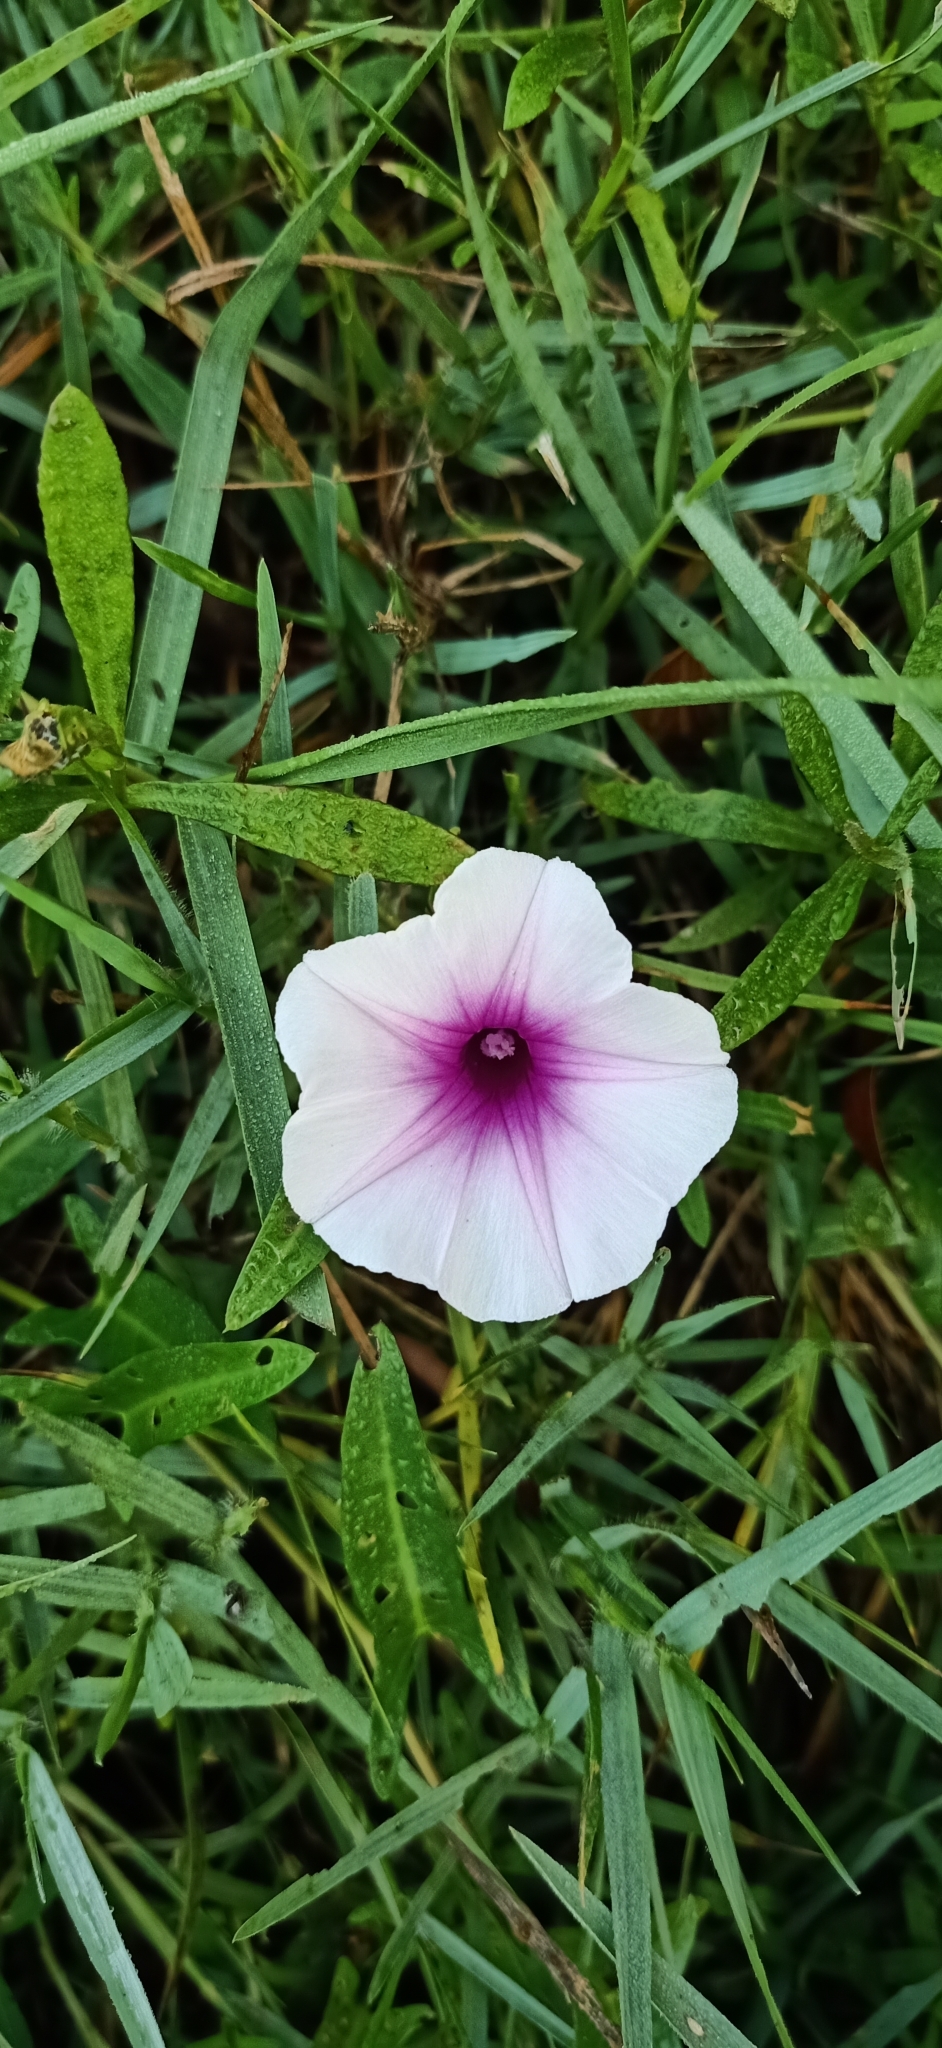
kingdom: Plantae
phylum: Tracheophyta
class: Magnoliopsida
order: Solanales
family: Convolvulaceae
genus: Ipomoea
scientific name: Ipomoea aquatica
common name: Swamp morning-glory
